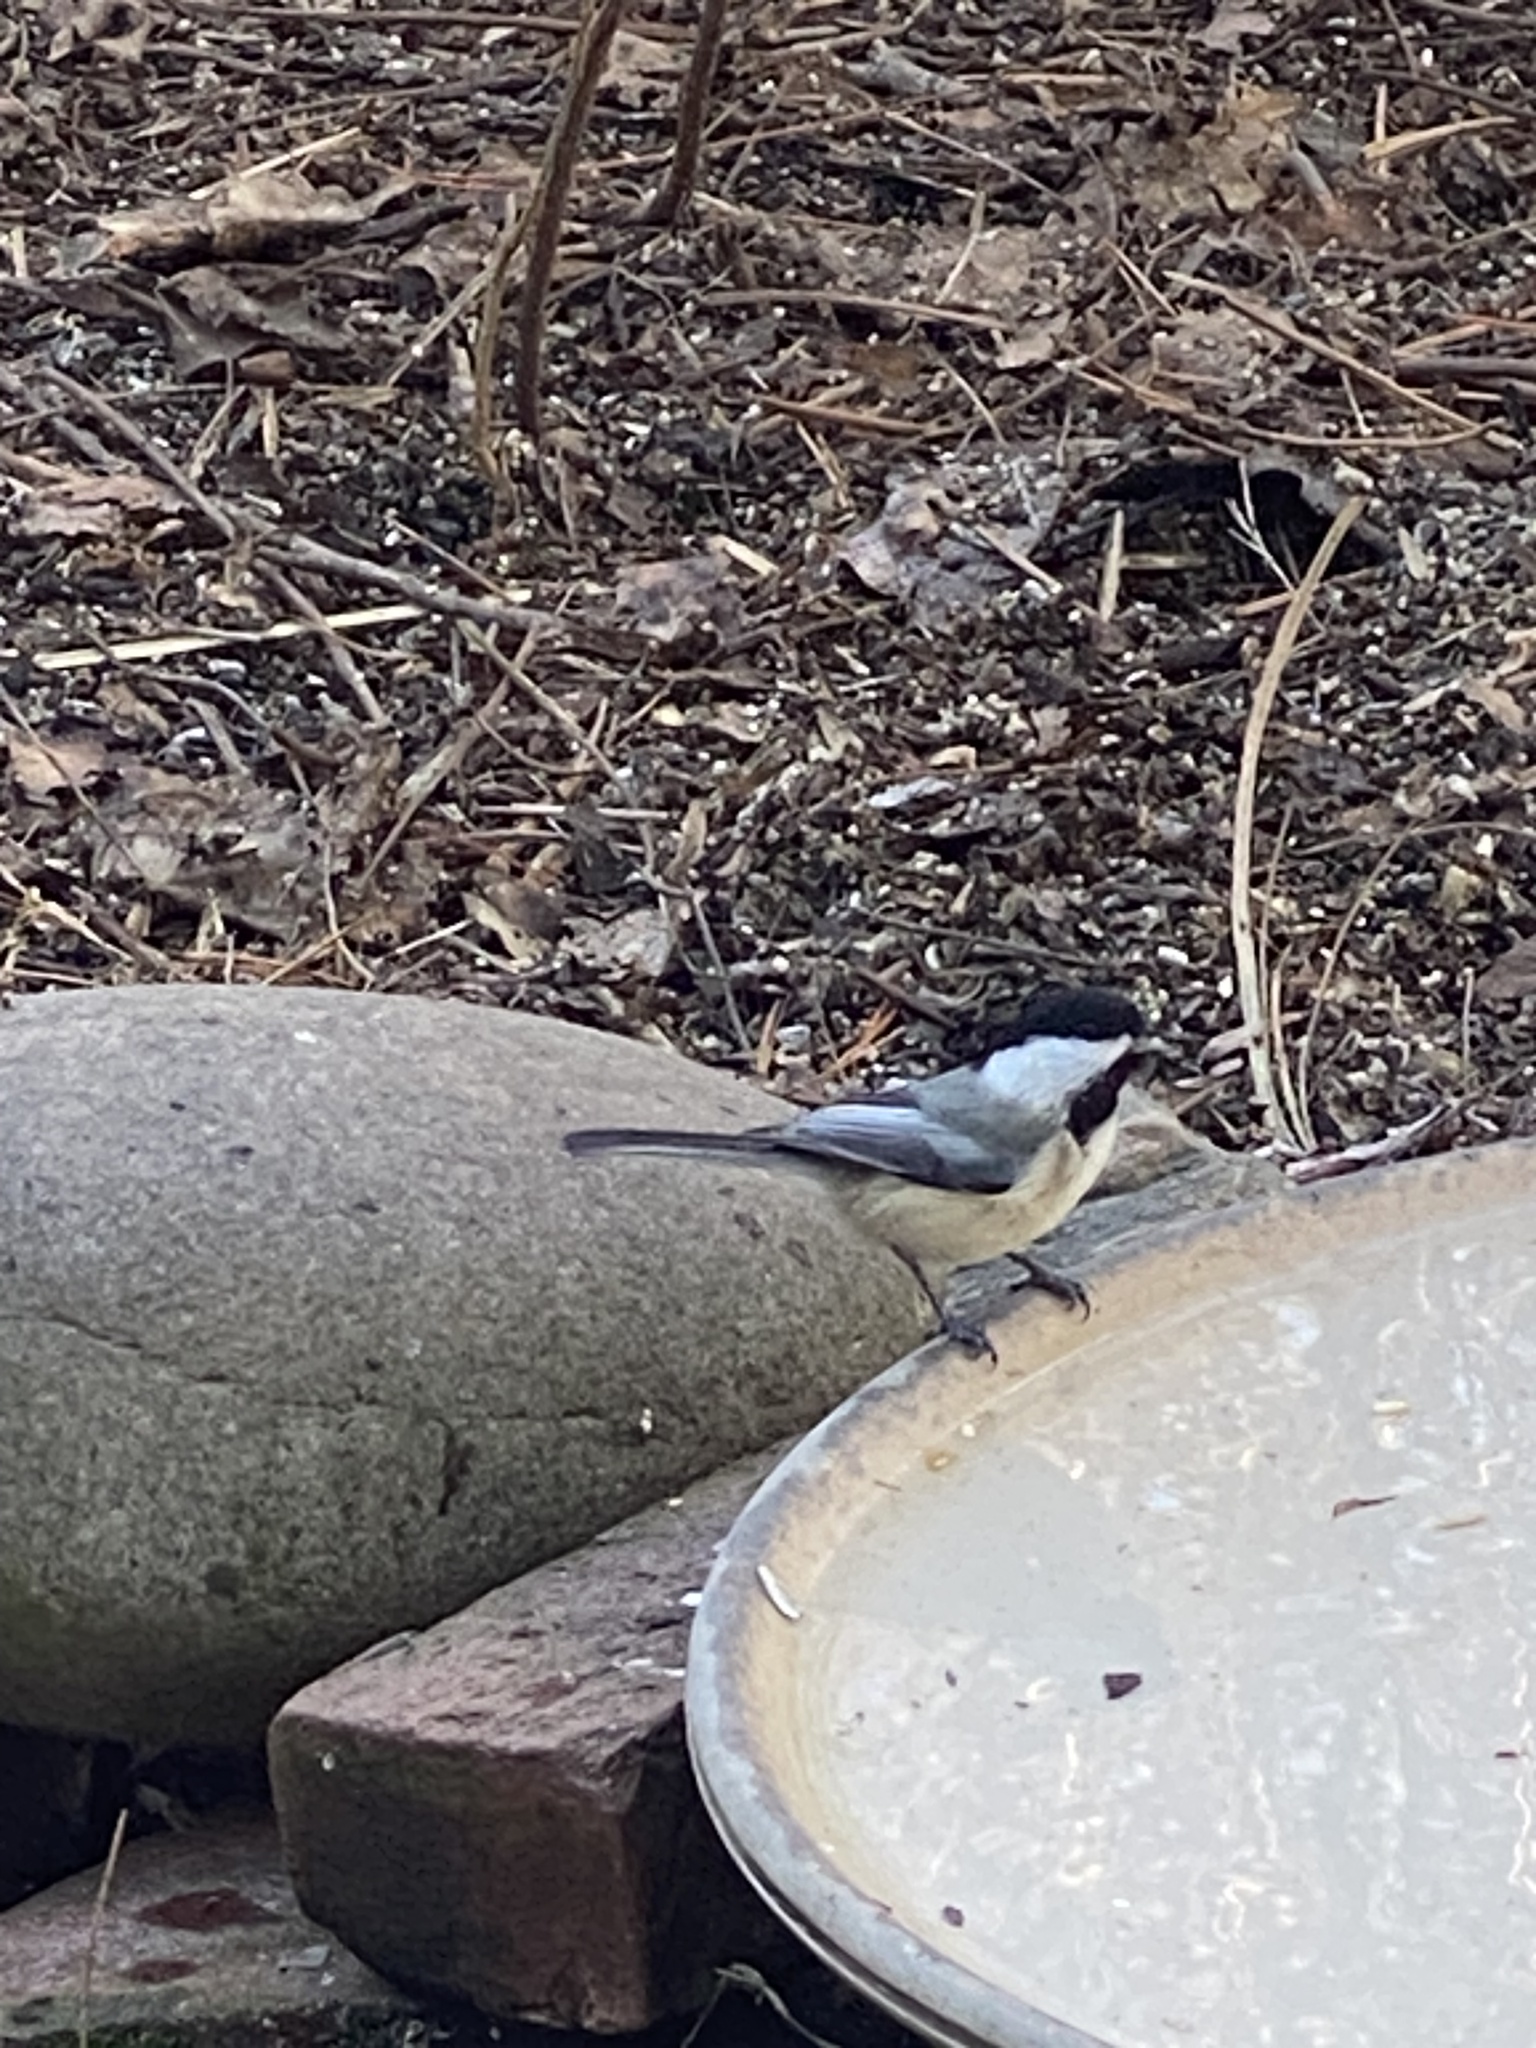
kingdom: Animalia
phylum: Chordata
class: Aves
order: Passeriformes
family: Paridae
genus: Poecile
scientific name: Poecile atricapillus
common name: Black-capped chickadee
